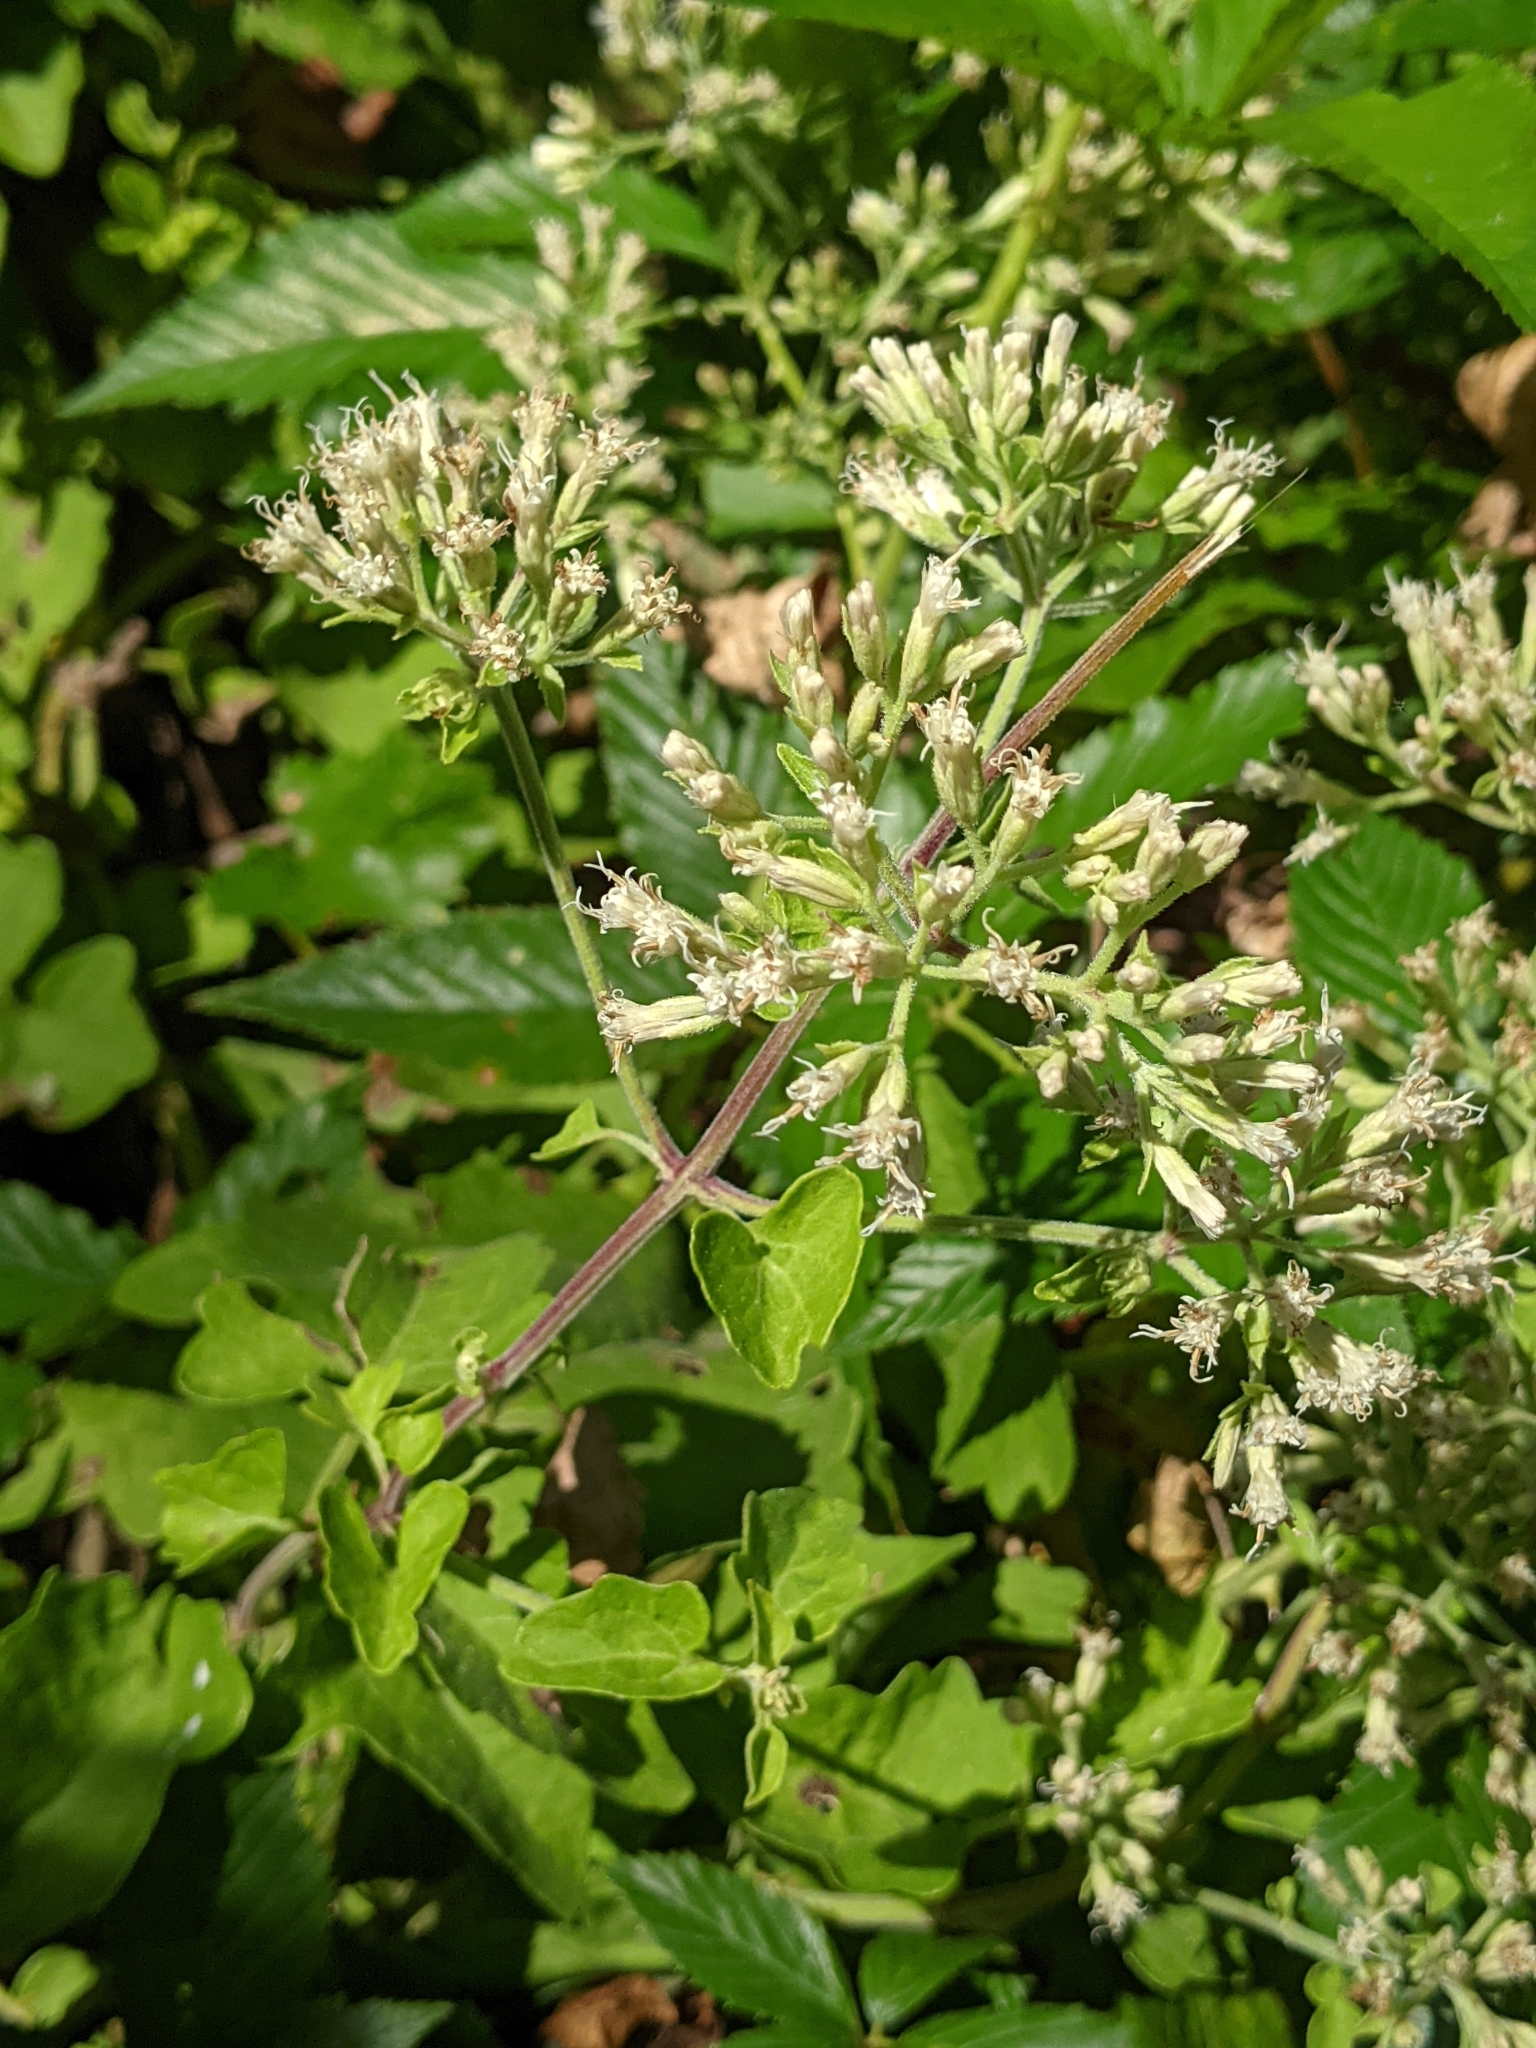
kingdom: Plantae
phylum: Tracheophyta
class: Magnoliopsida
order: Asterales
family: Asteraceae
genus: Mikania
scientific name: Mikania cordifolia
